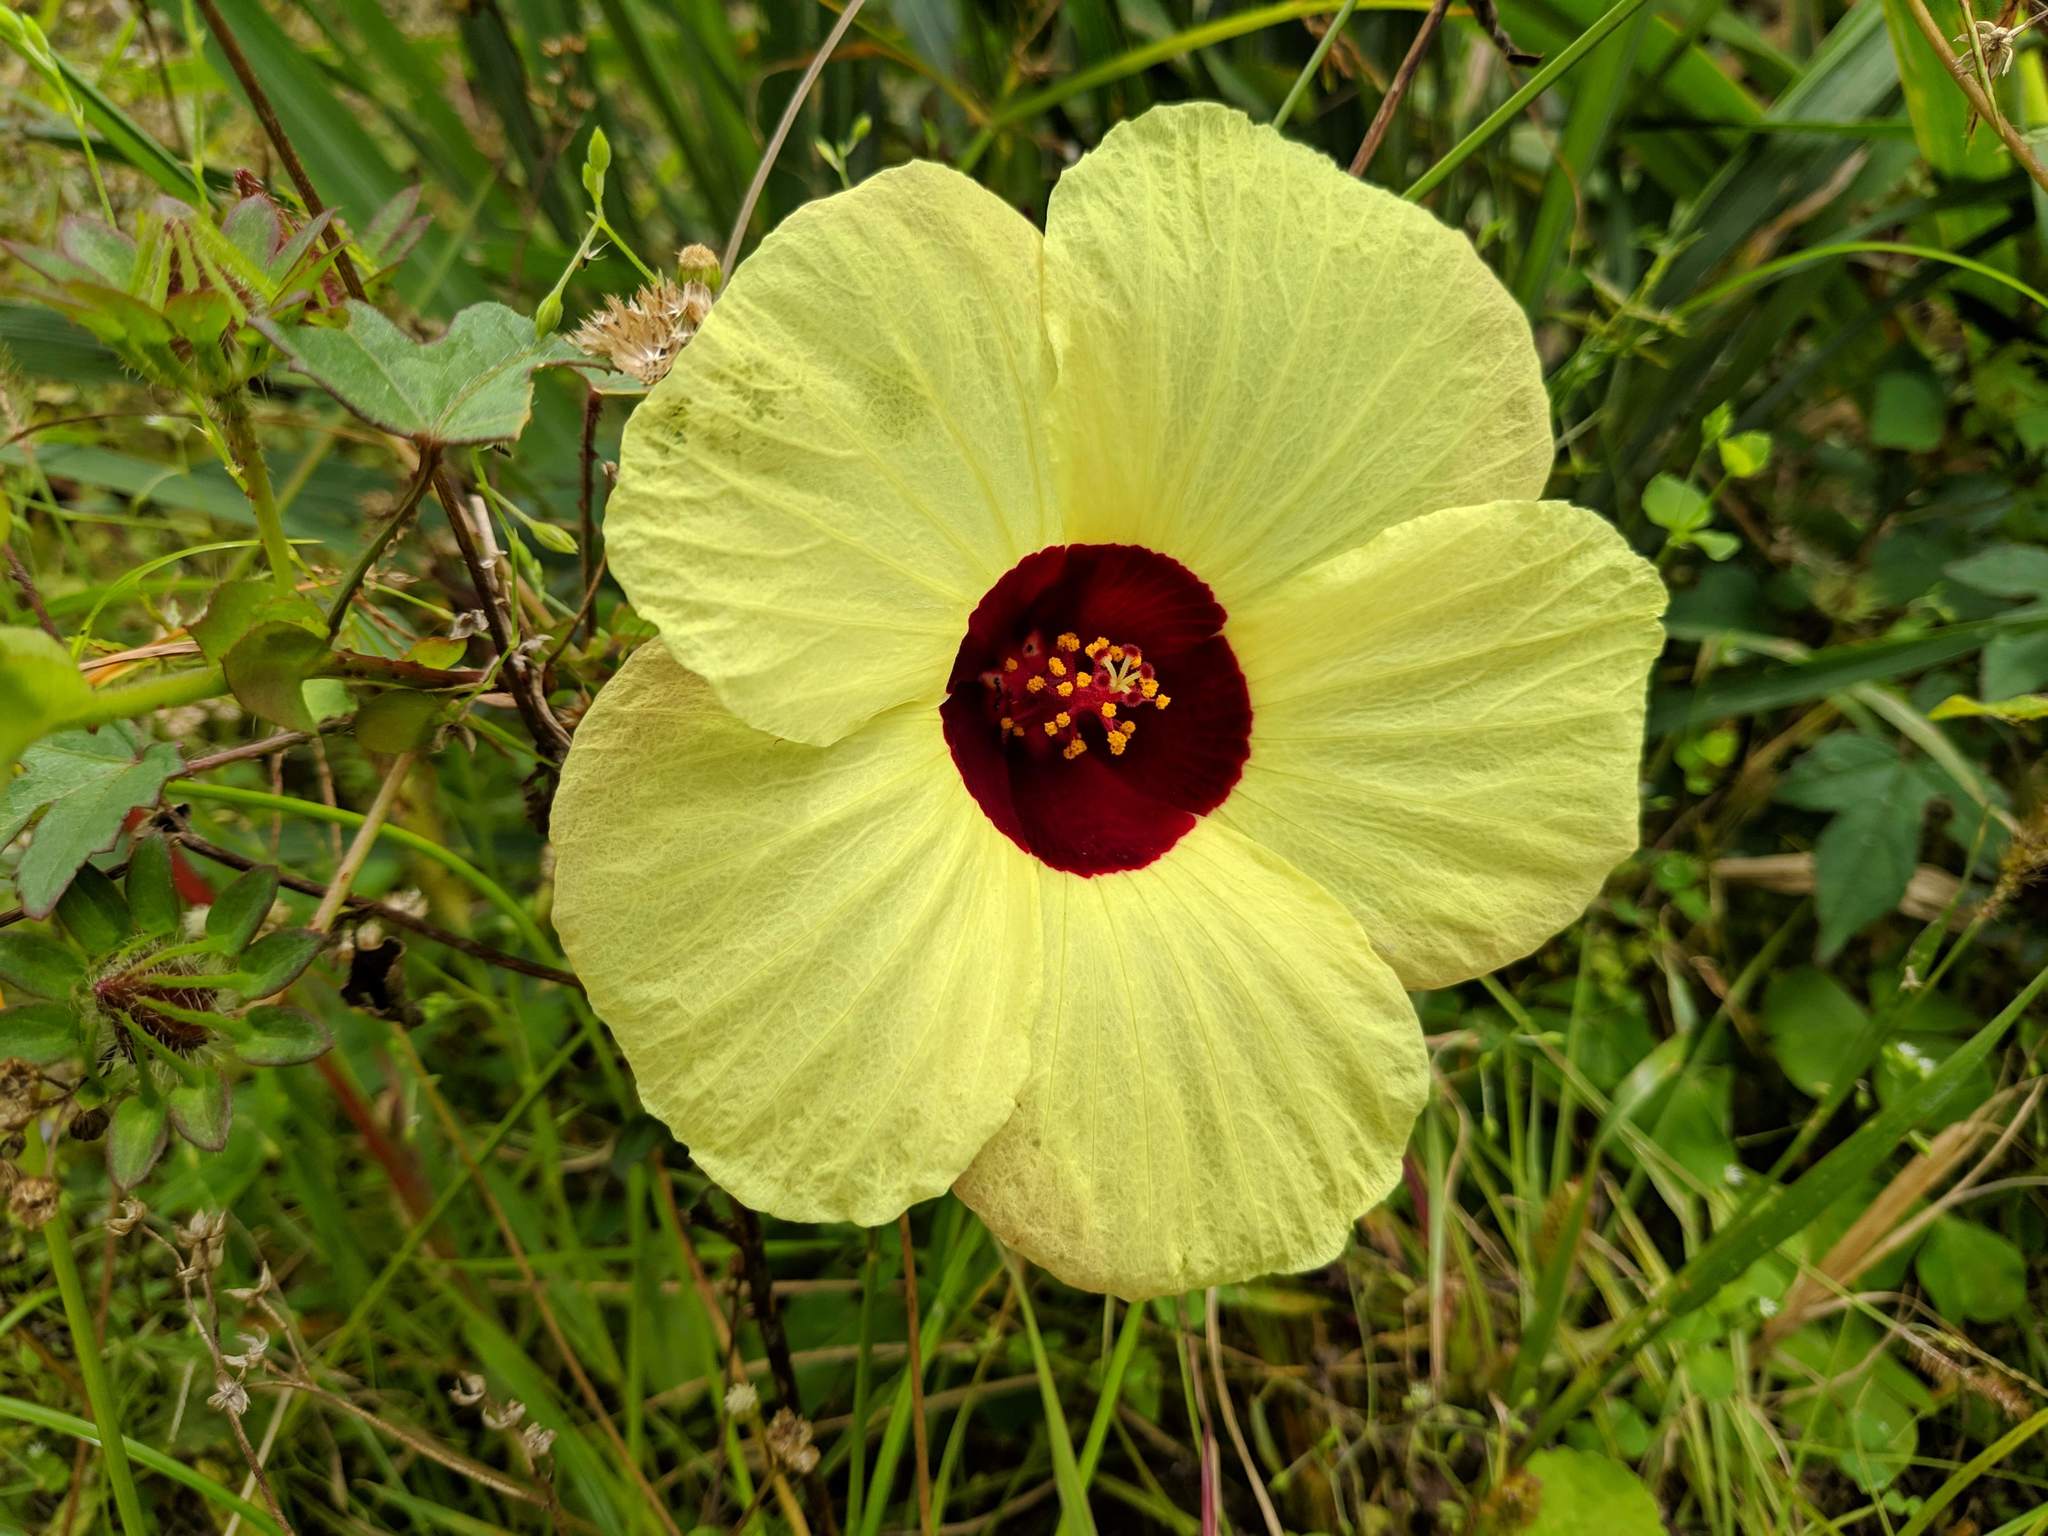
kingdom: Plantae
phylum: Tracheophyta
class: Magnoliopsida
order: Malvales
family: Malvaceae
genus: Hibiscus
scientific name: Hibiscus surattensis
